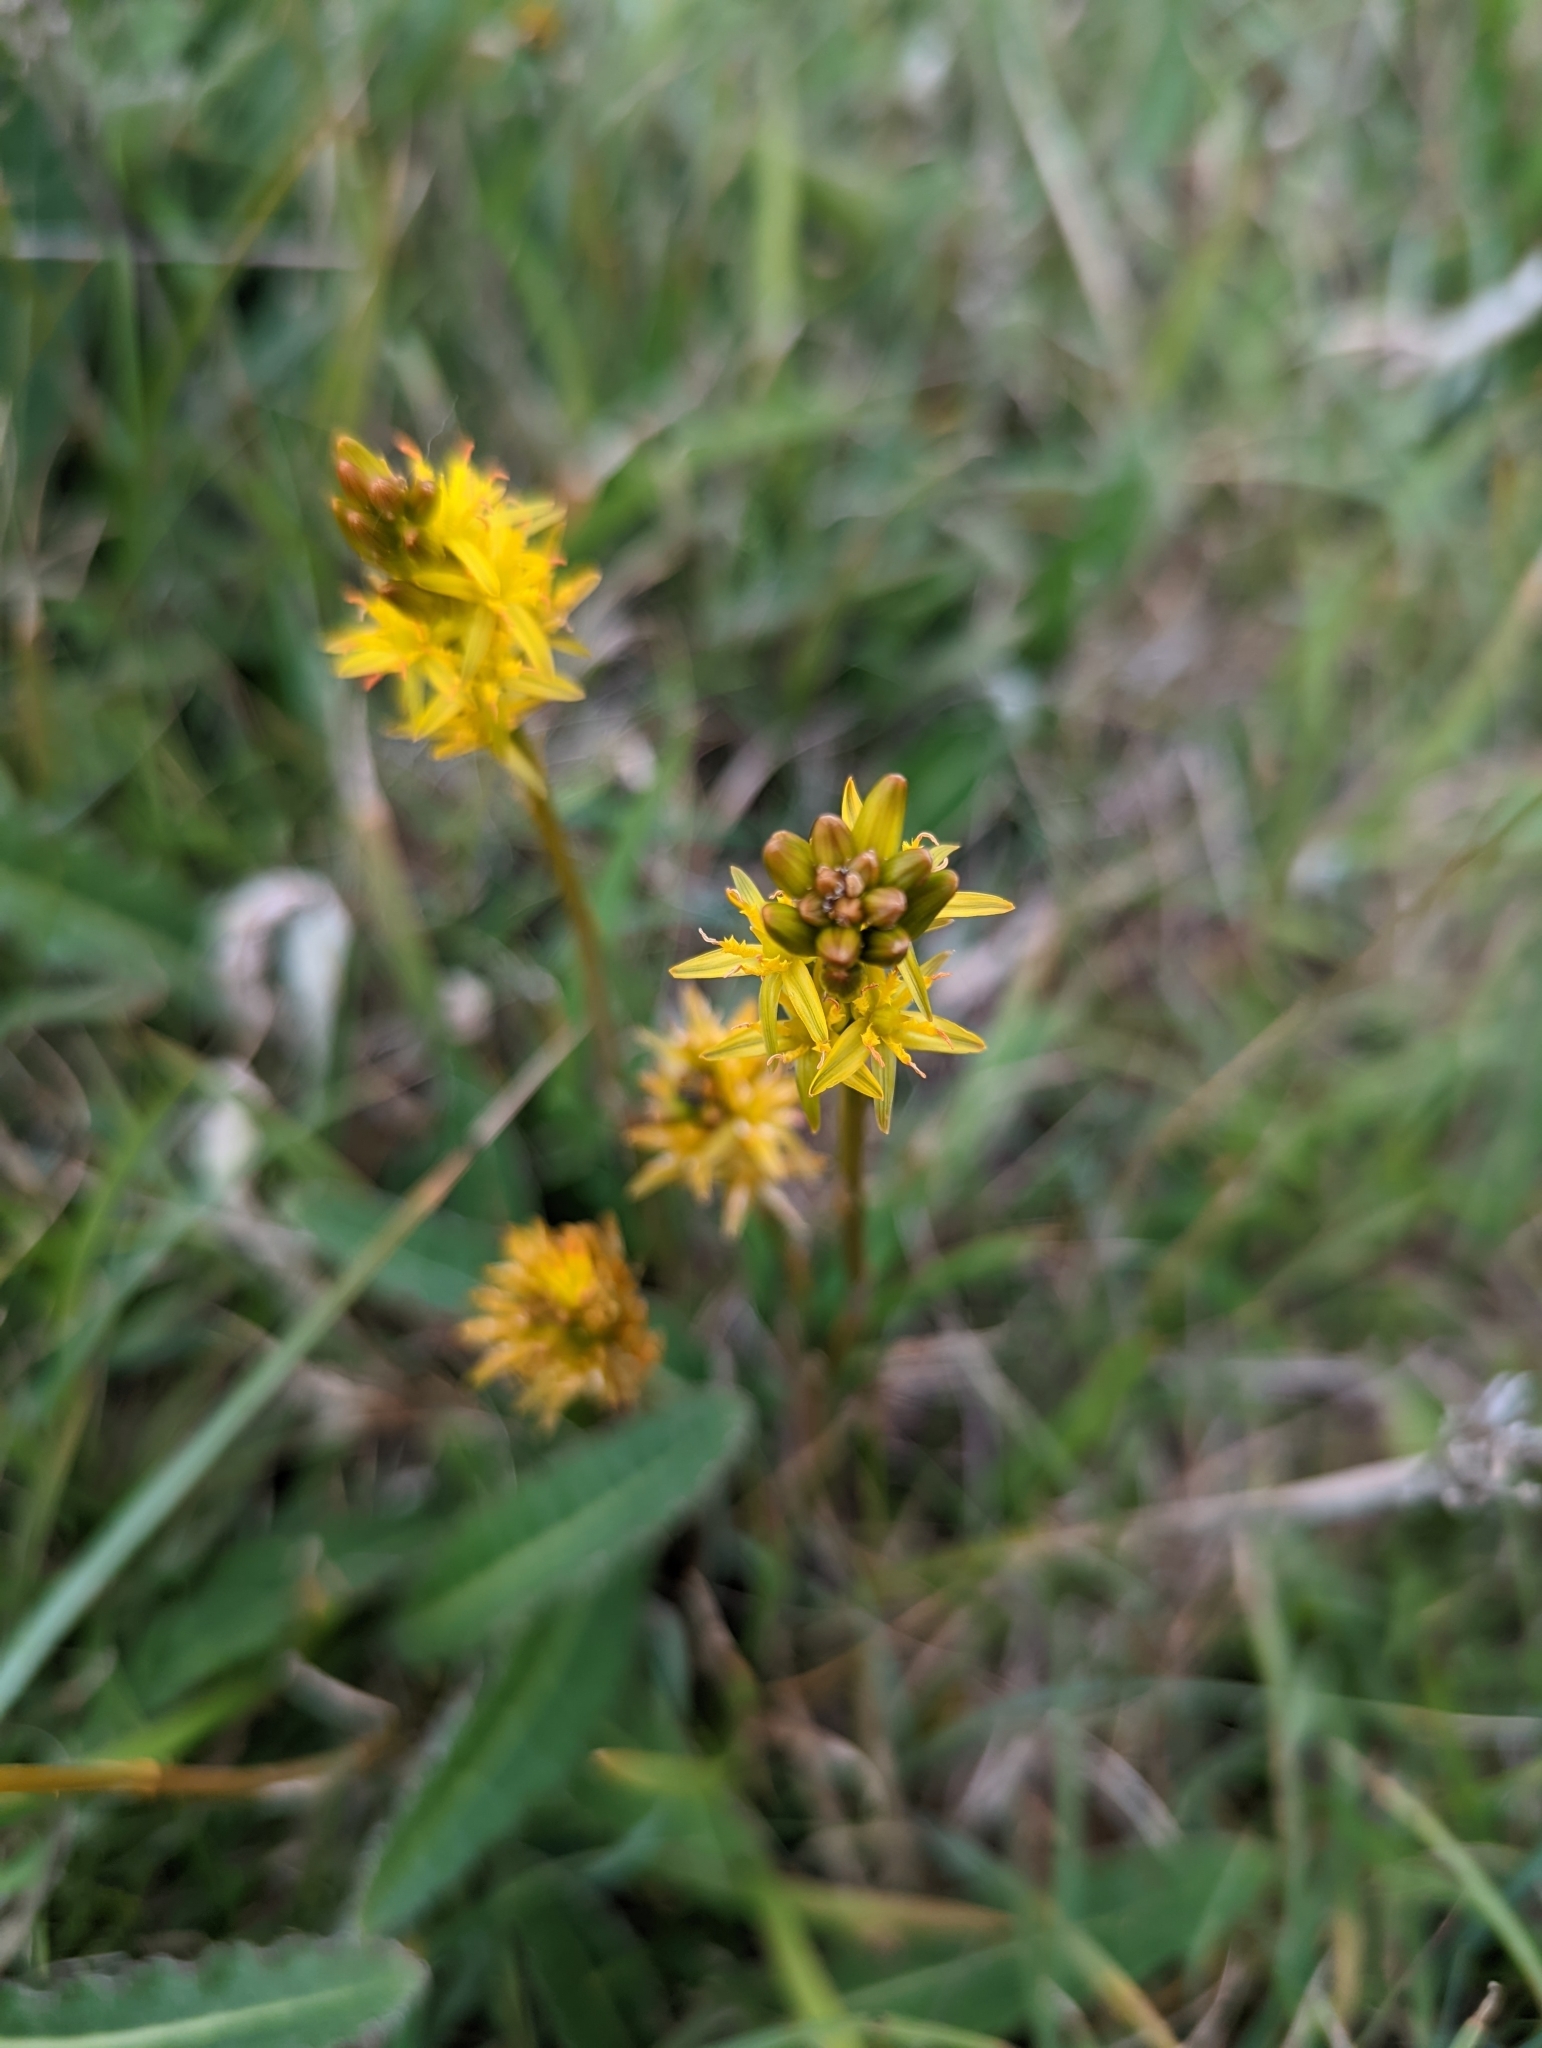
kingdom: Plantae
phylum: Tracheophyta
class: Liliopsida
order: Dioscoreales
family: Nartheciaceae
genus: Narthecium
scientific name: Narthecium ossifragum
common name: Bog asphodel
